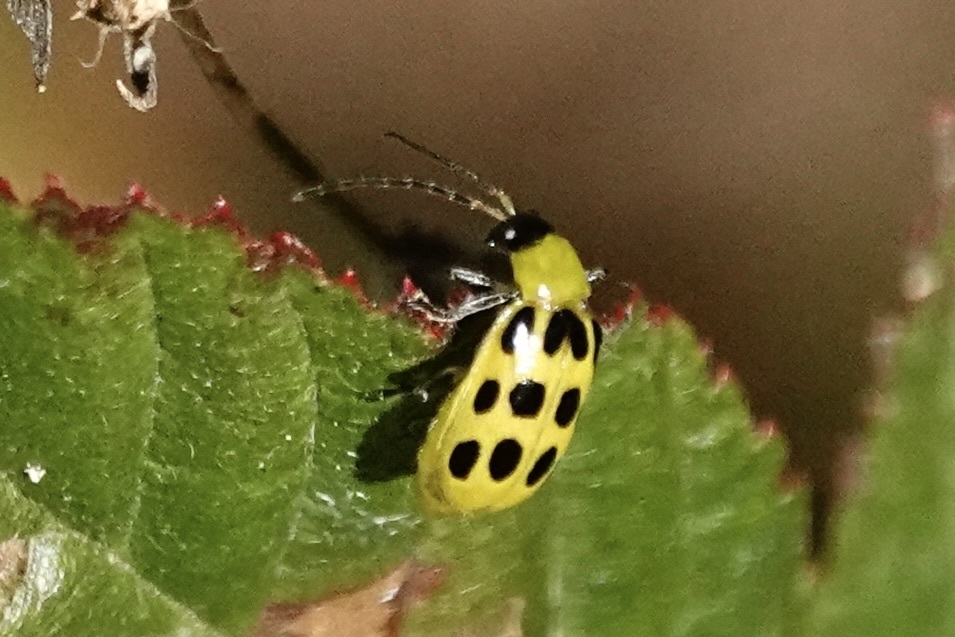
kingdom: Animalia
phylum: Arthropoda
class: Insecta
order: Coleoptera
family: Chrysomelidae
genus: Diabrotica
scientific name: Diabrotica undecimpunctata
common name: Spotted cucumber beetle
